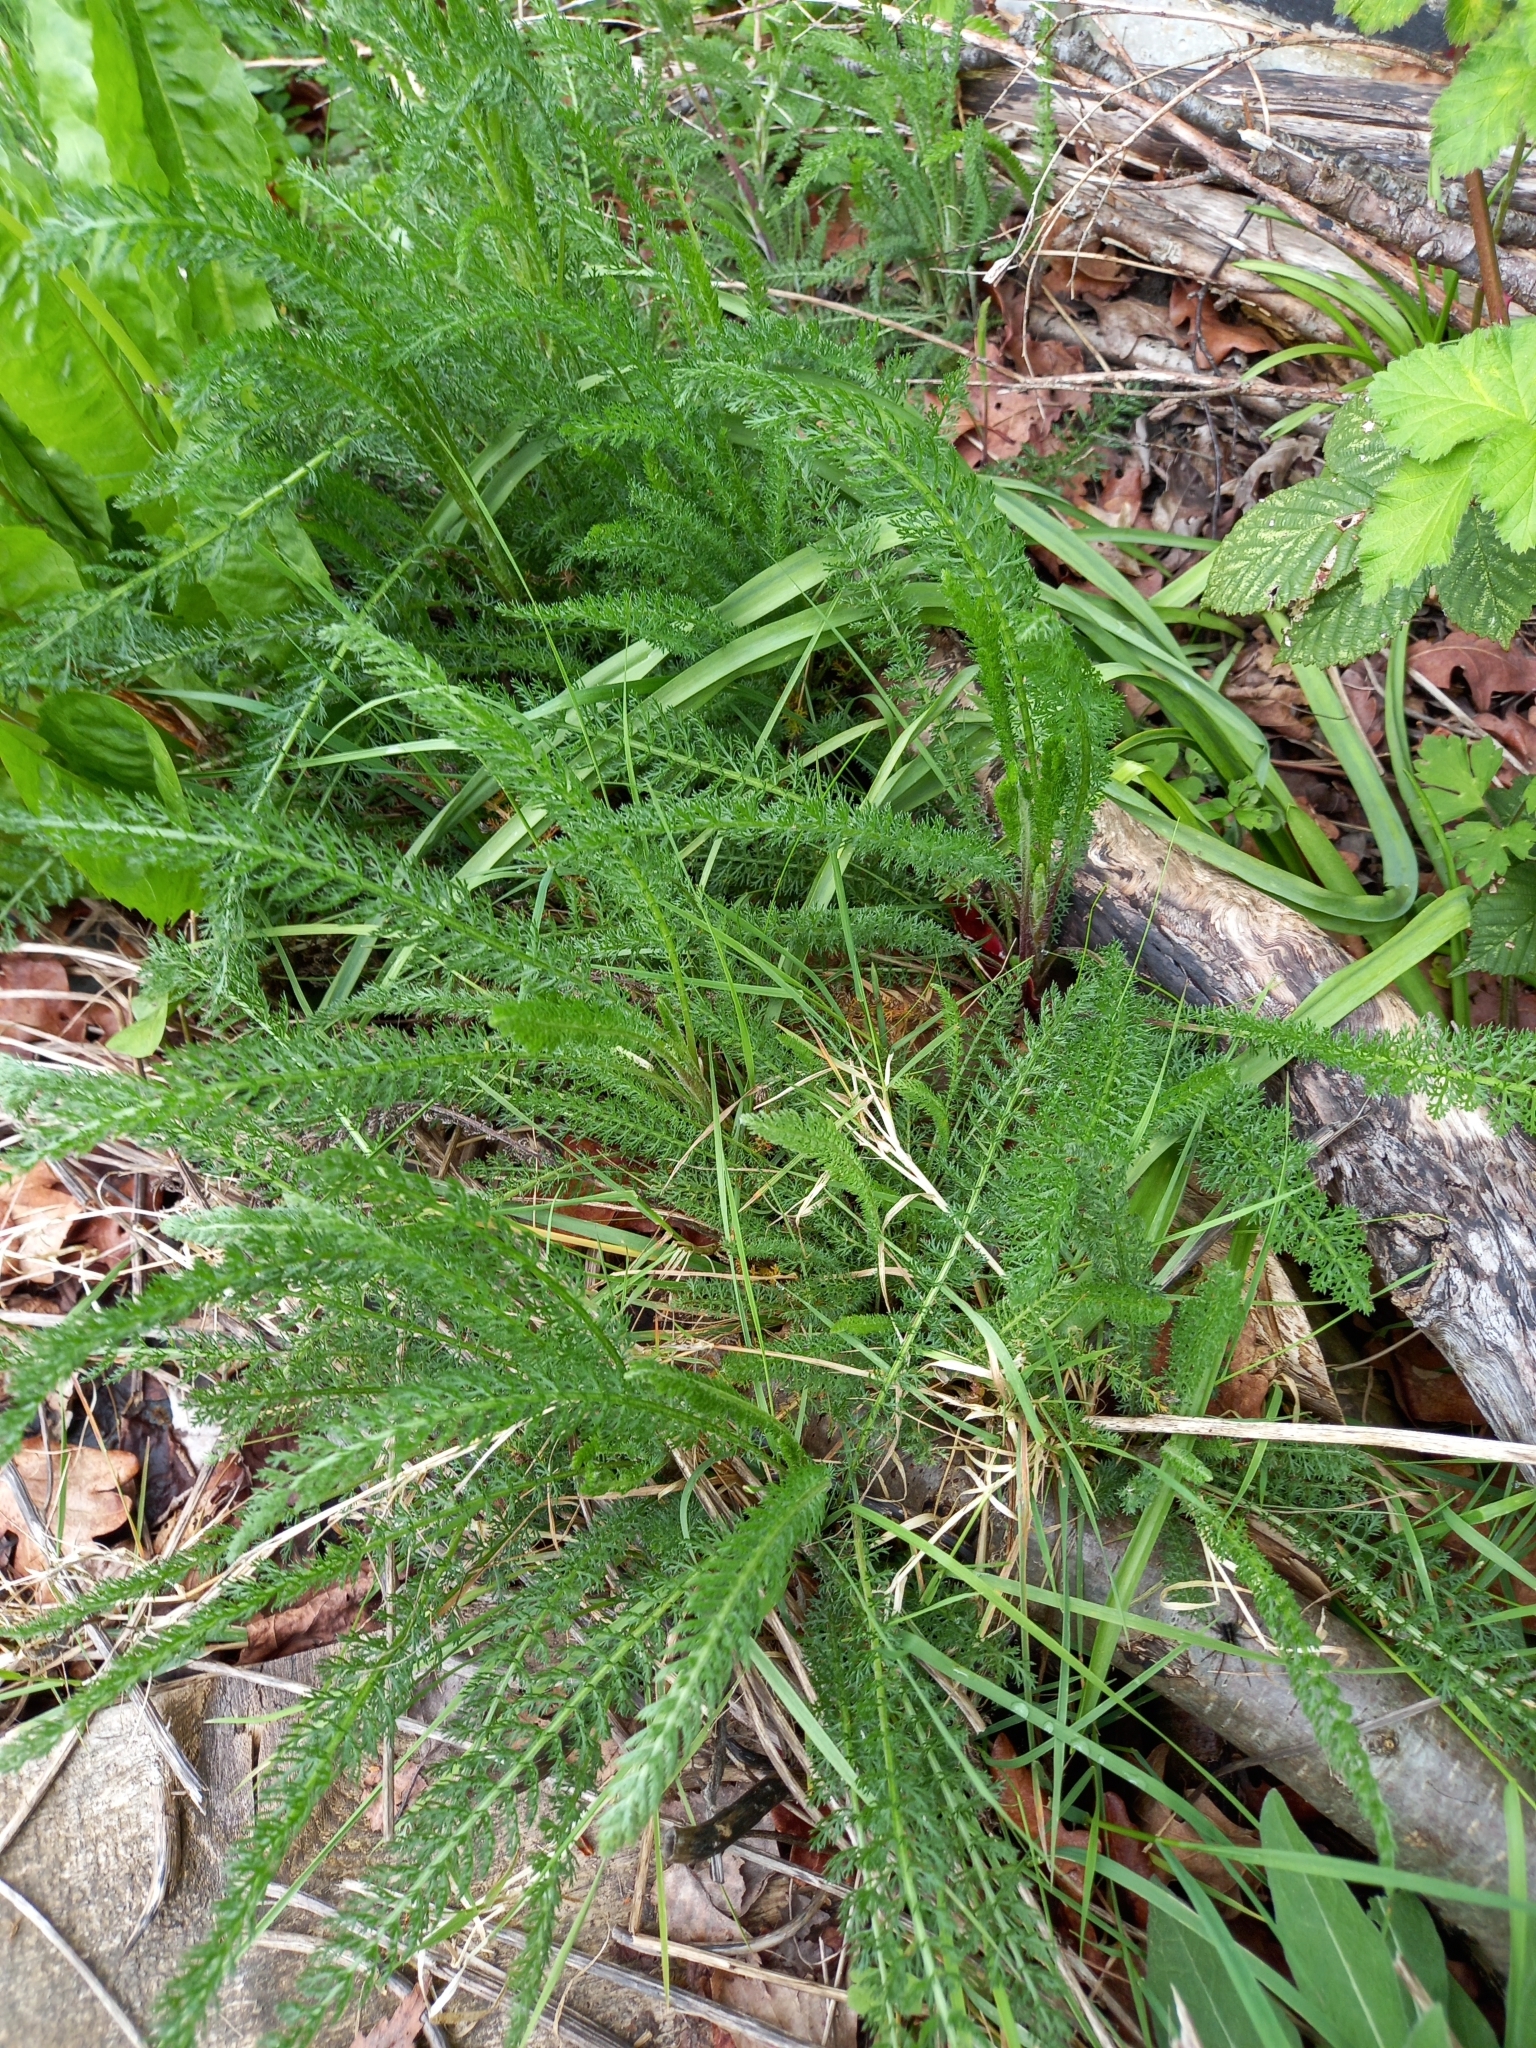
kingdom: Plantae
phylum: Tracheophyta
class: Magnoliopsida
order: Asterales
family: Asteraceae
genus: Achillea
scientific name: Achillea millefolium
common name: Yarrow
